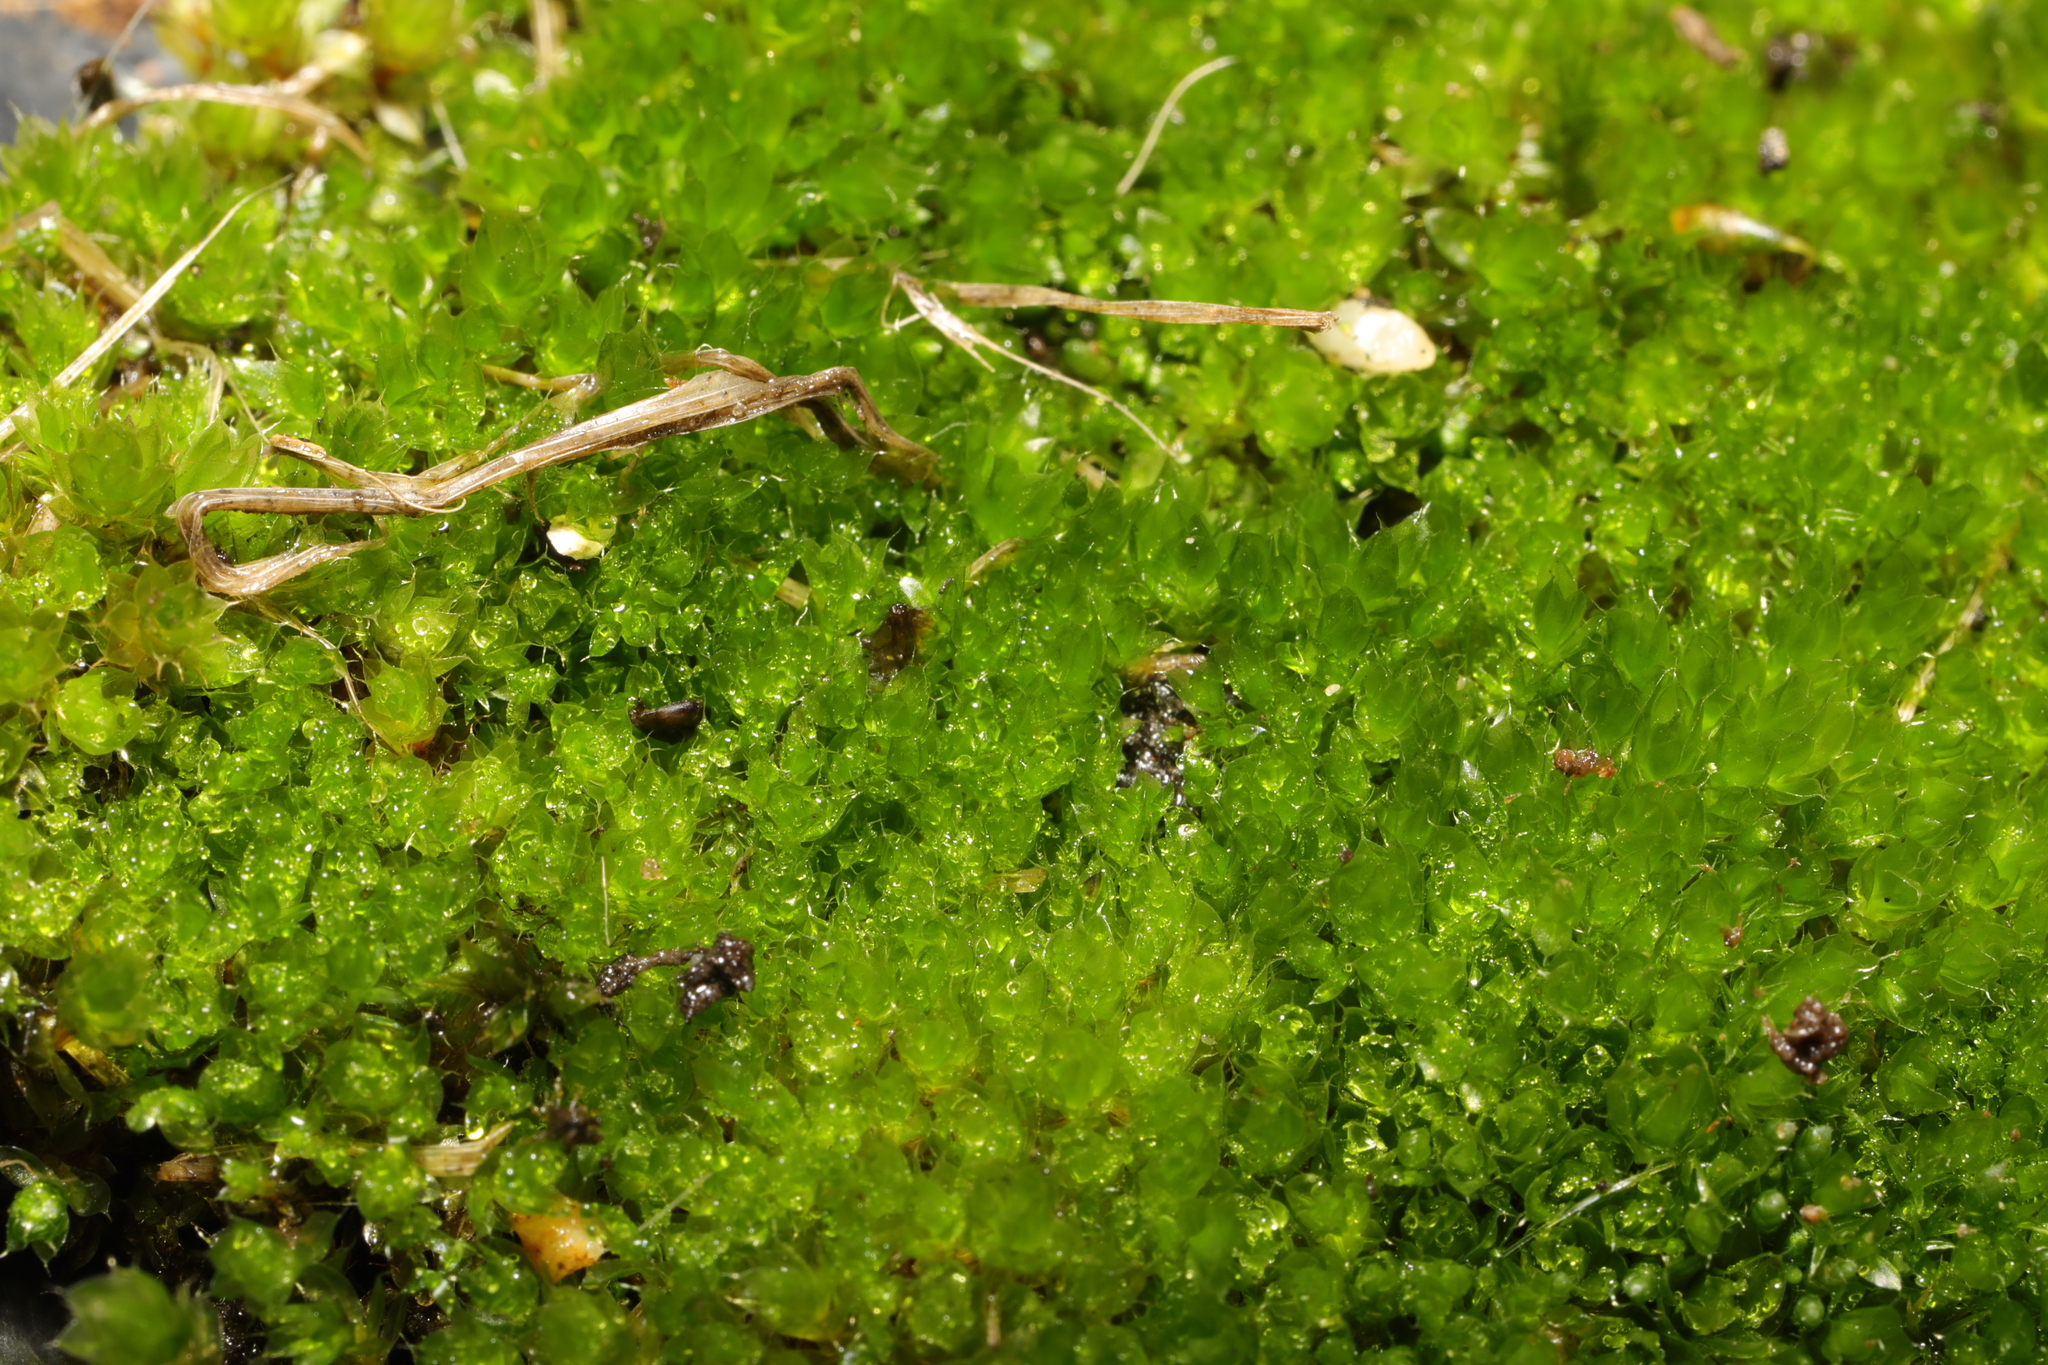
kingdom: Plantae
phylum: Bryophyta
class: Bryopsida
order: Bryales
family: Bryaceae
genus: Rosulabryum
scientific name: Rosulabryum capillare
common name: Capillary thread-moss
